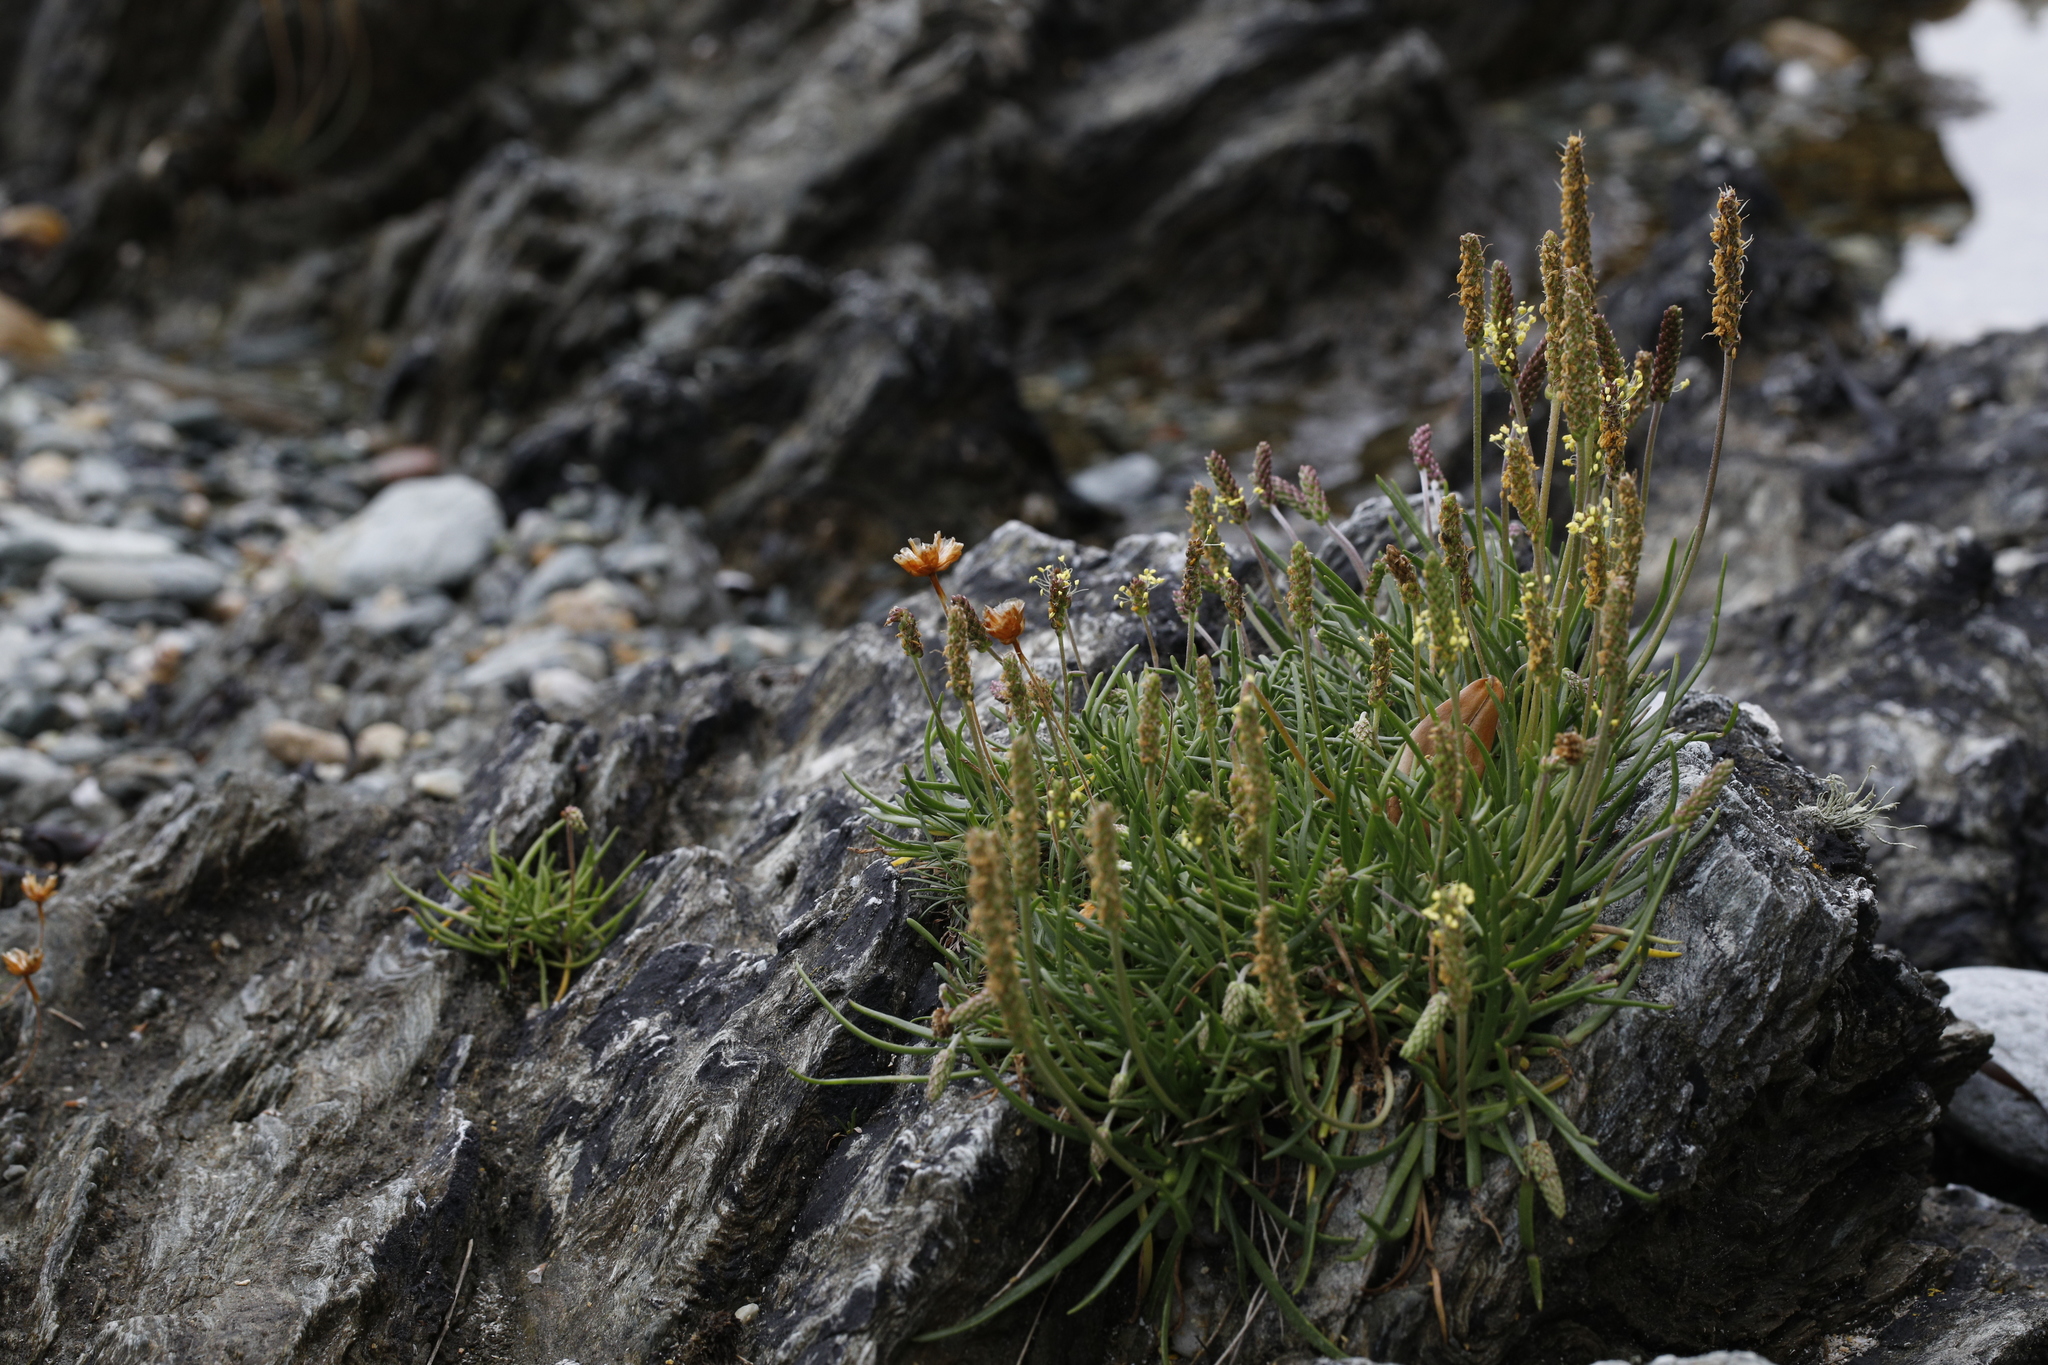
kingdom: Plantae
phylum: Tracheophyta
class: Magnoliopsida
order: Lamiales
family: Plantaginaceae
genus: Plantago
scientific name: Plantago maritima
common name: Sea plantain
